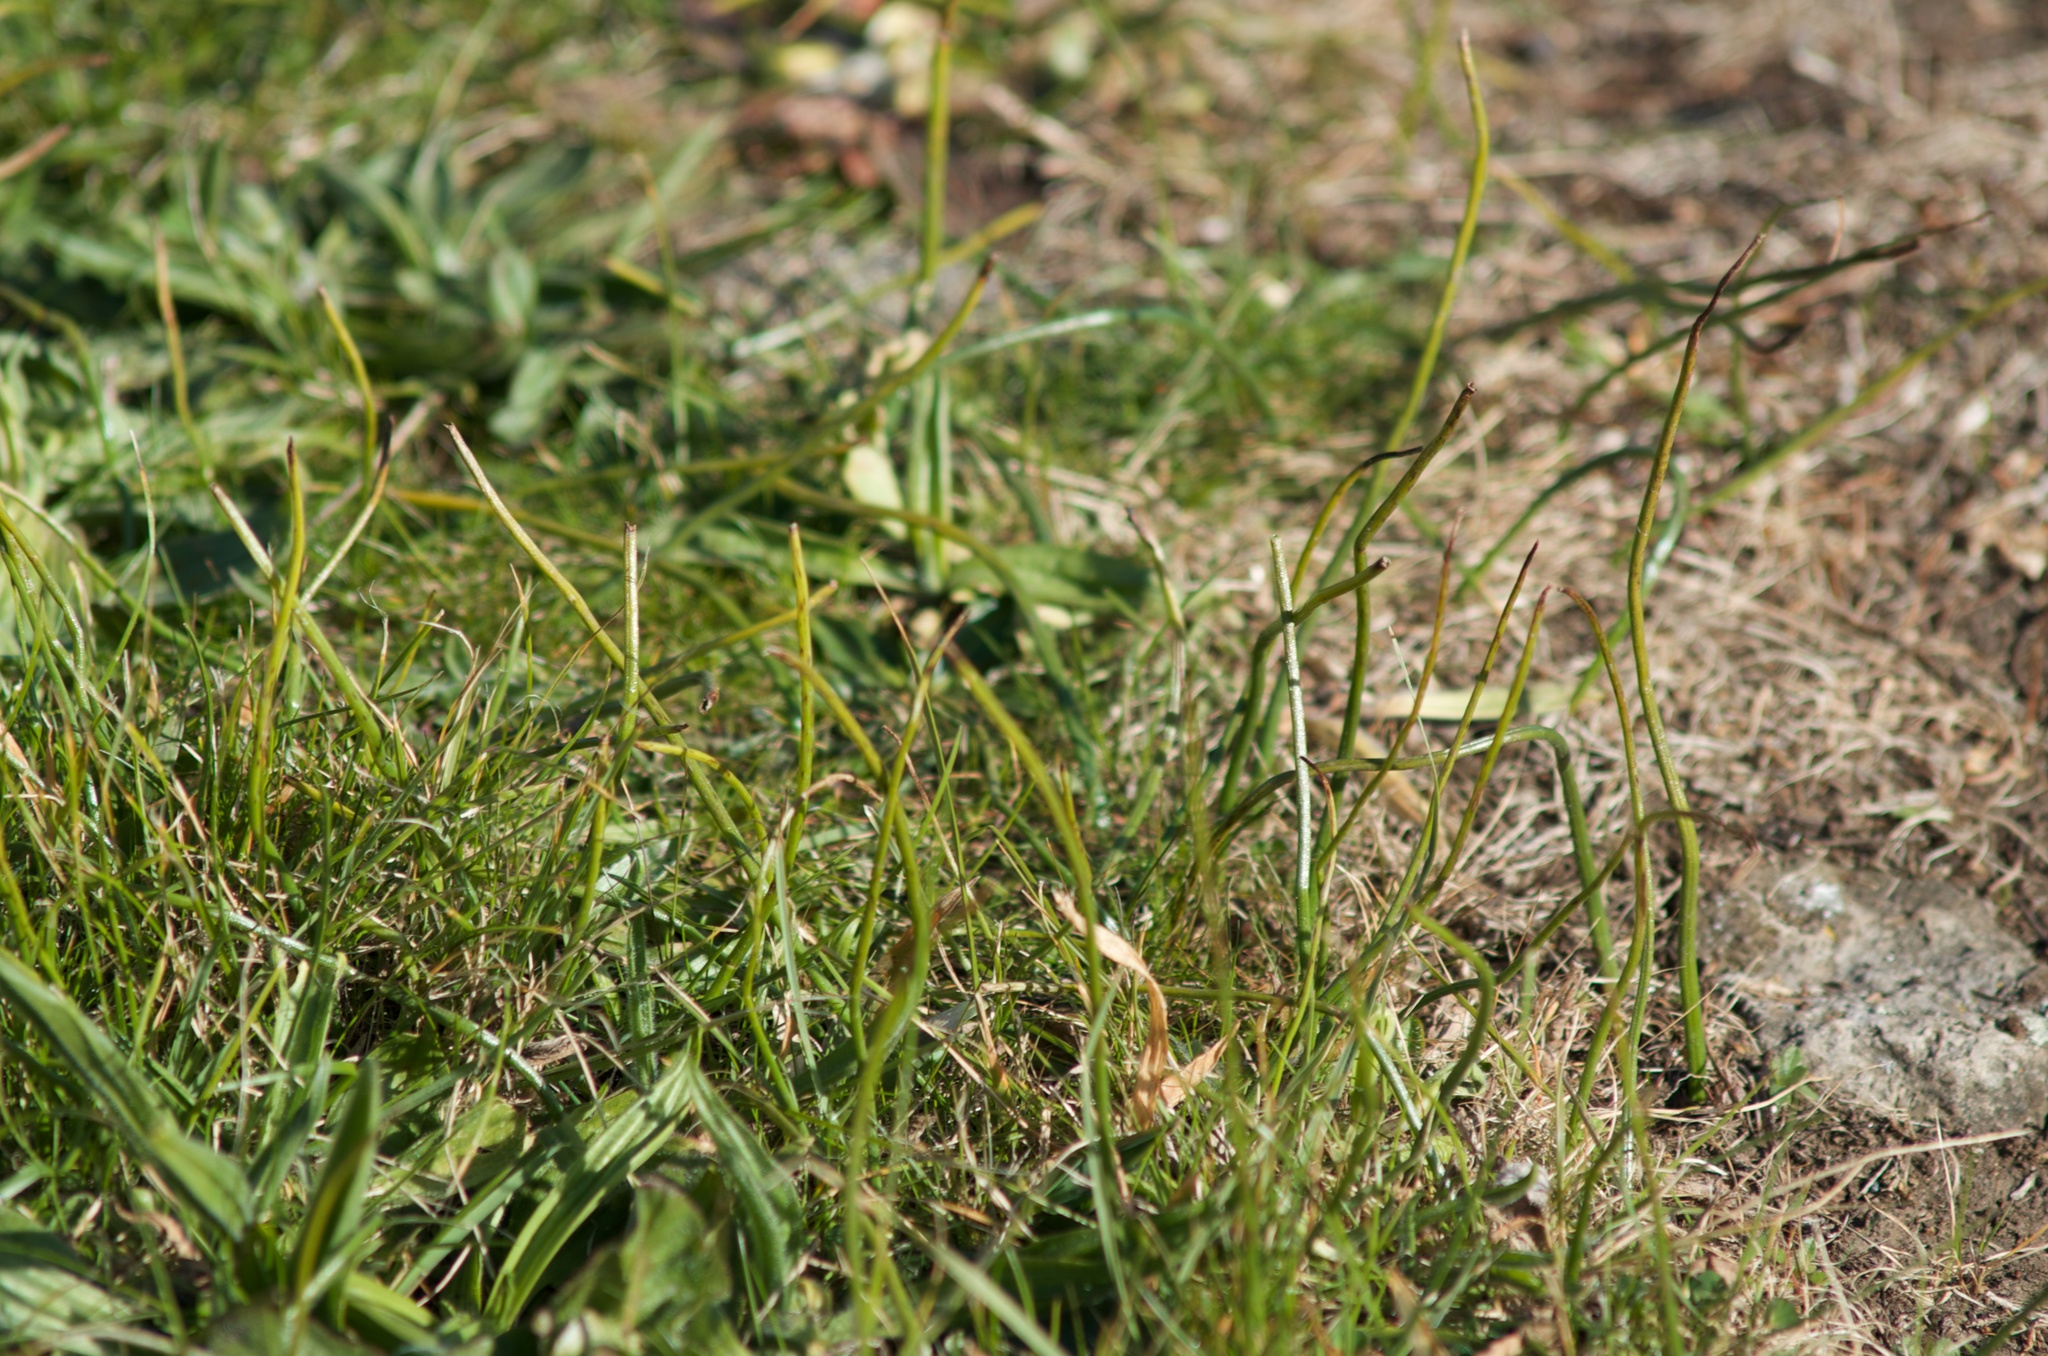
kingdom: Plantae
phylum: Tracheophyta
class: Liliopsida
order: Asparagales
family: Orchidaceae
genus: Microtis
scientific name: Microtis unifolia
